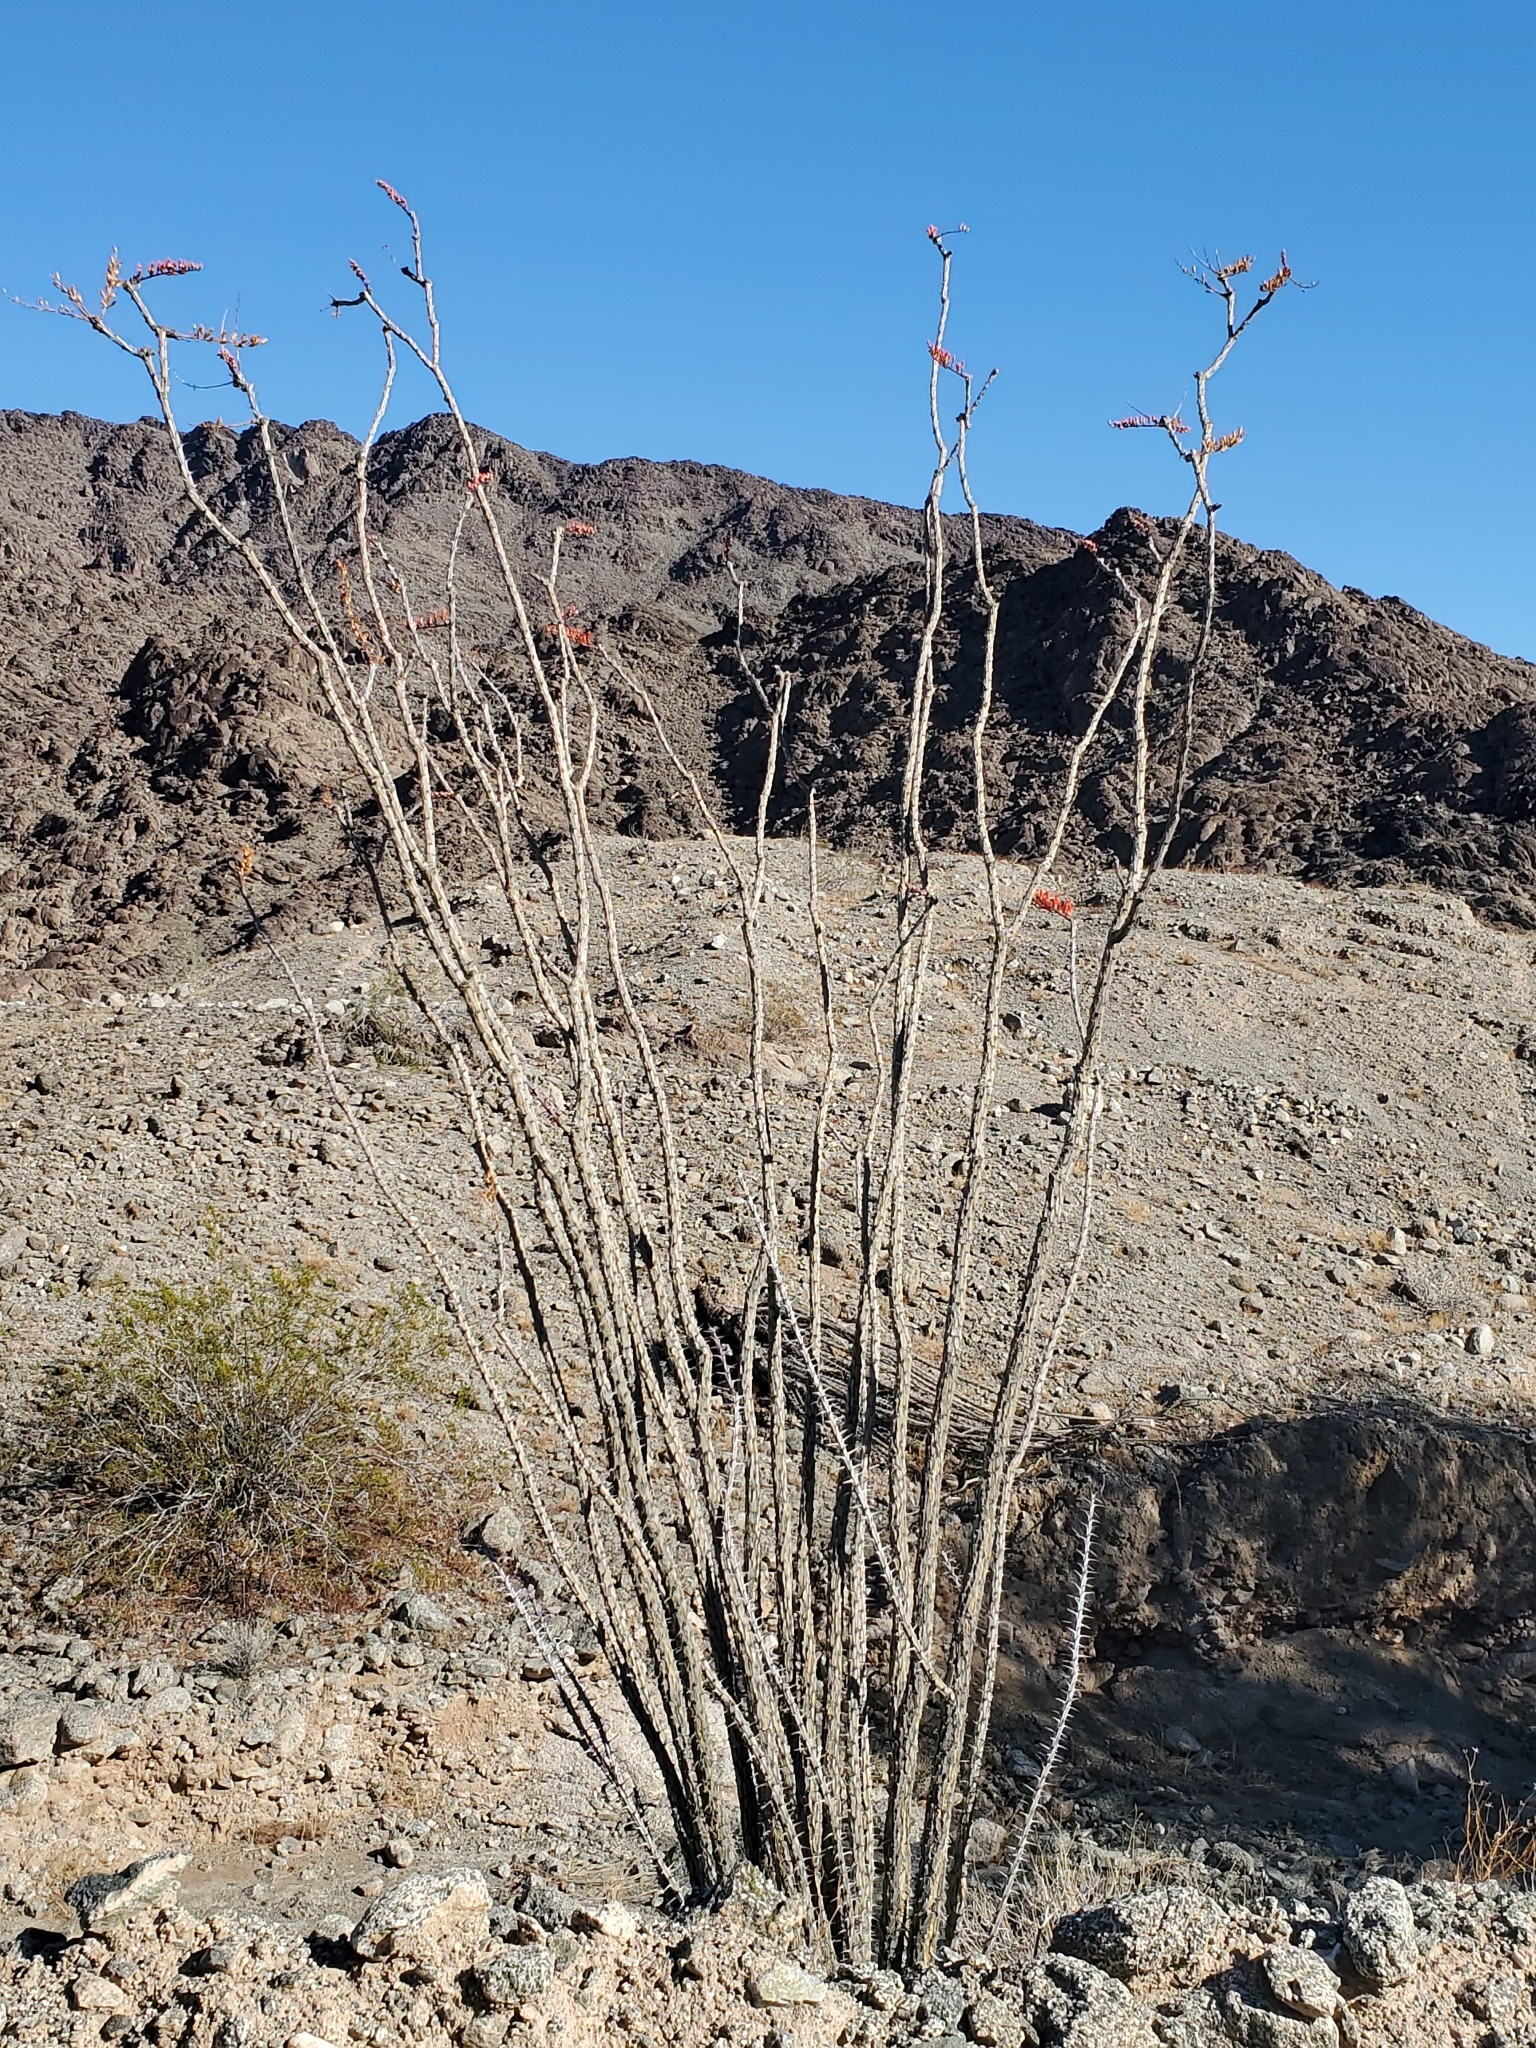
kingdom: Plantae
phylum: Tracheophyta
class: Magnoliopsida
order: Ericales
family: Fouquieriaceae
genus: Fouquieria
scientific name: Fouquieria splendens
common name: Vine-cactus
